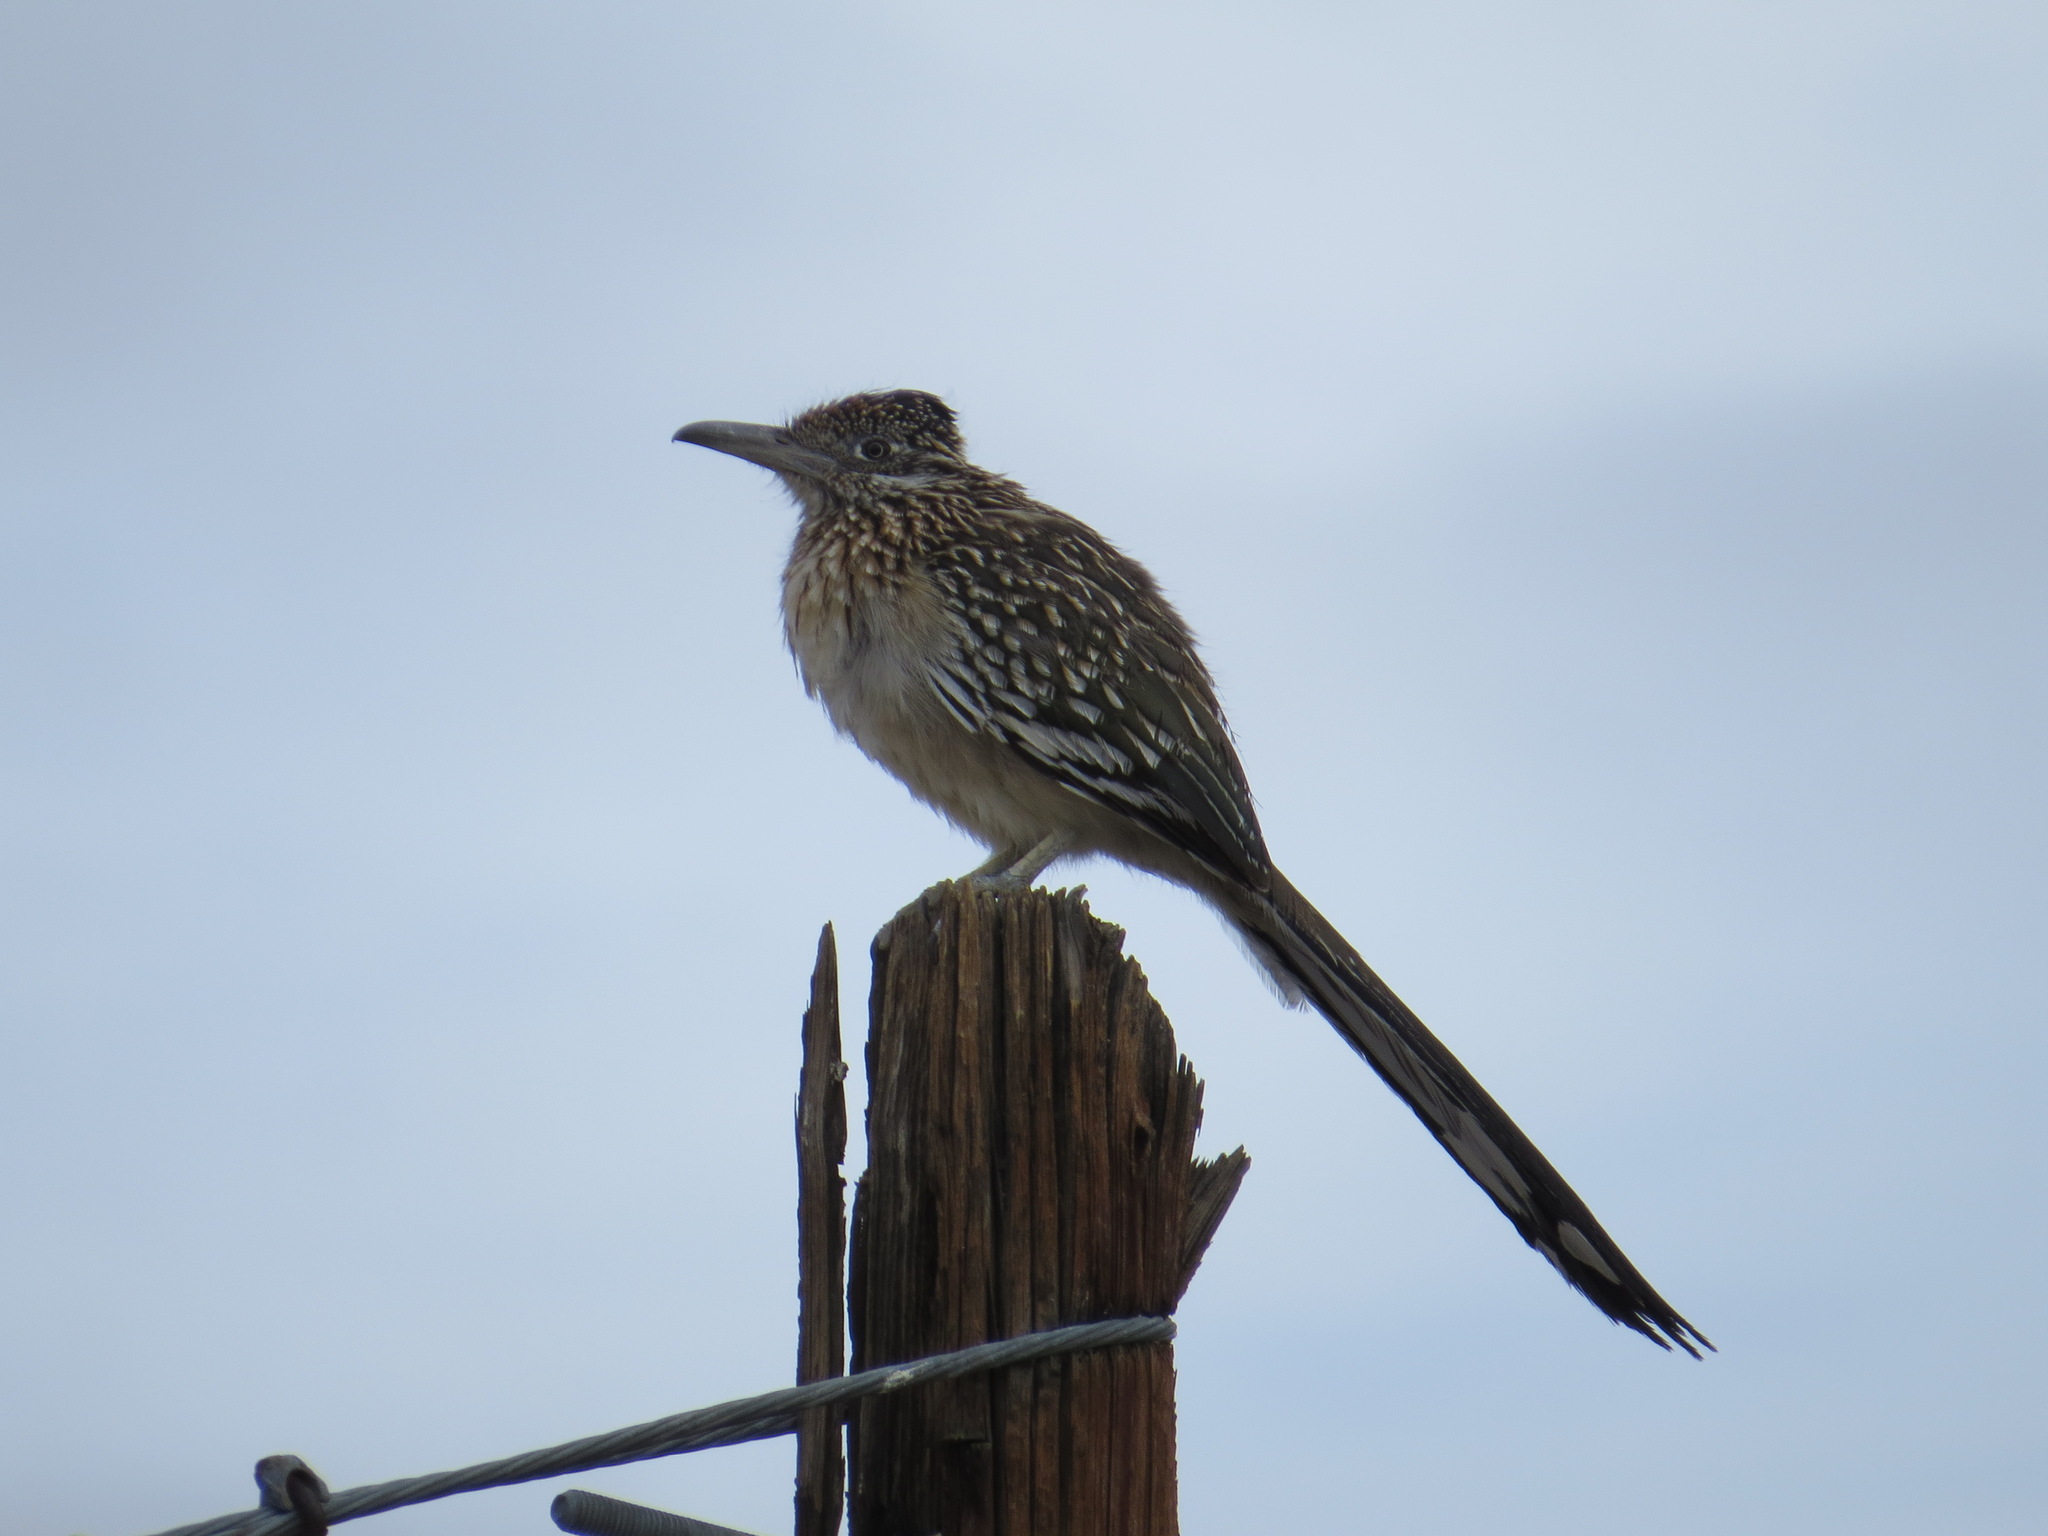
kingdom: Animalia
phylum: Chordata
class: Aves
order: Cuculiformes
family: Cuculidae
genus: Geococcyx
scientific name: Geococcyx californianus
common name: Greater roadrunner
